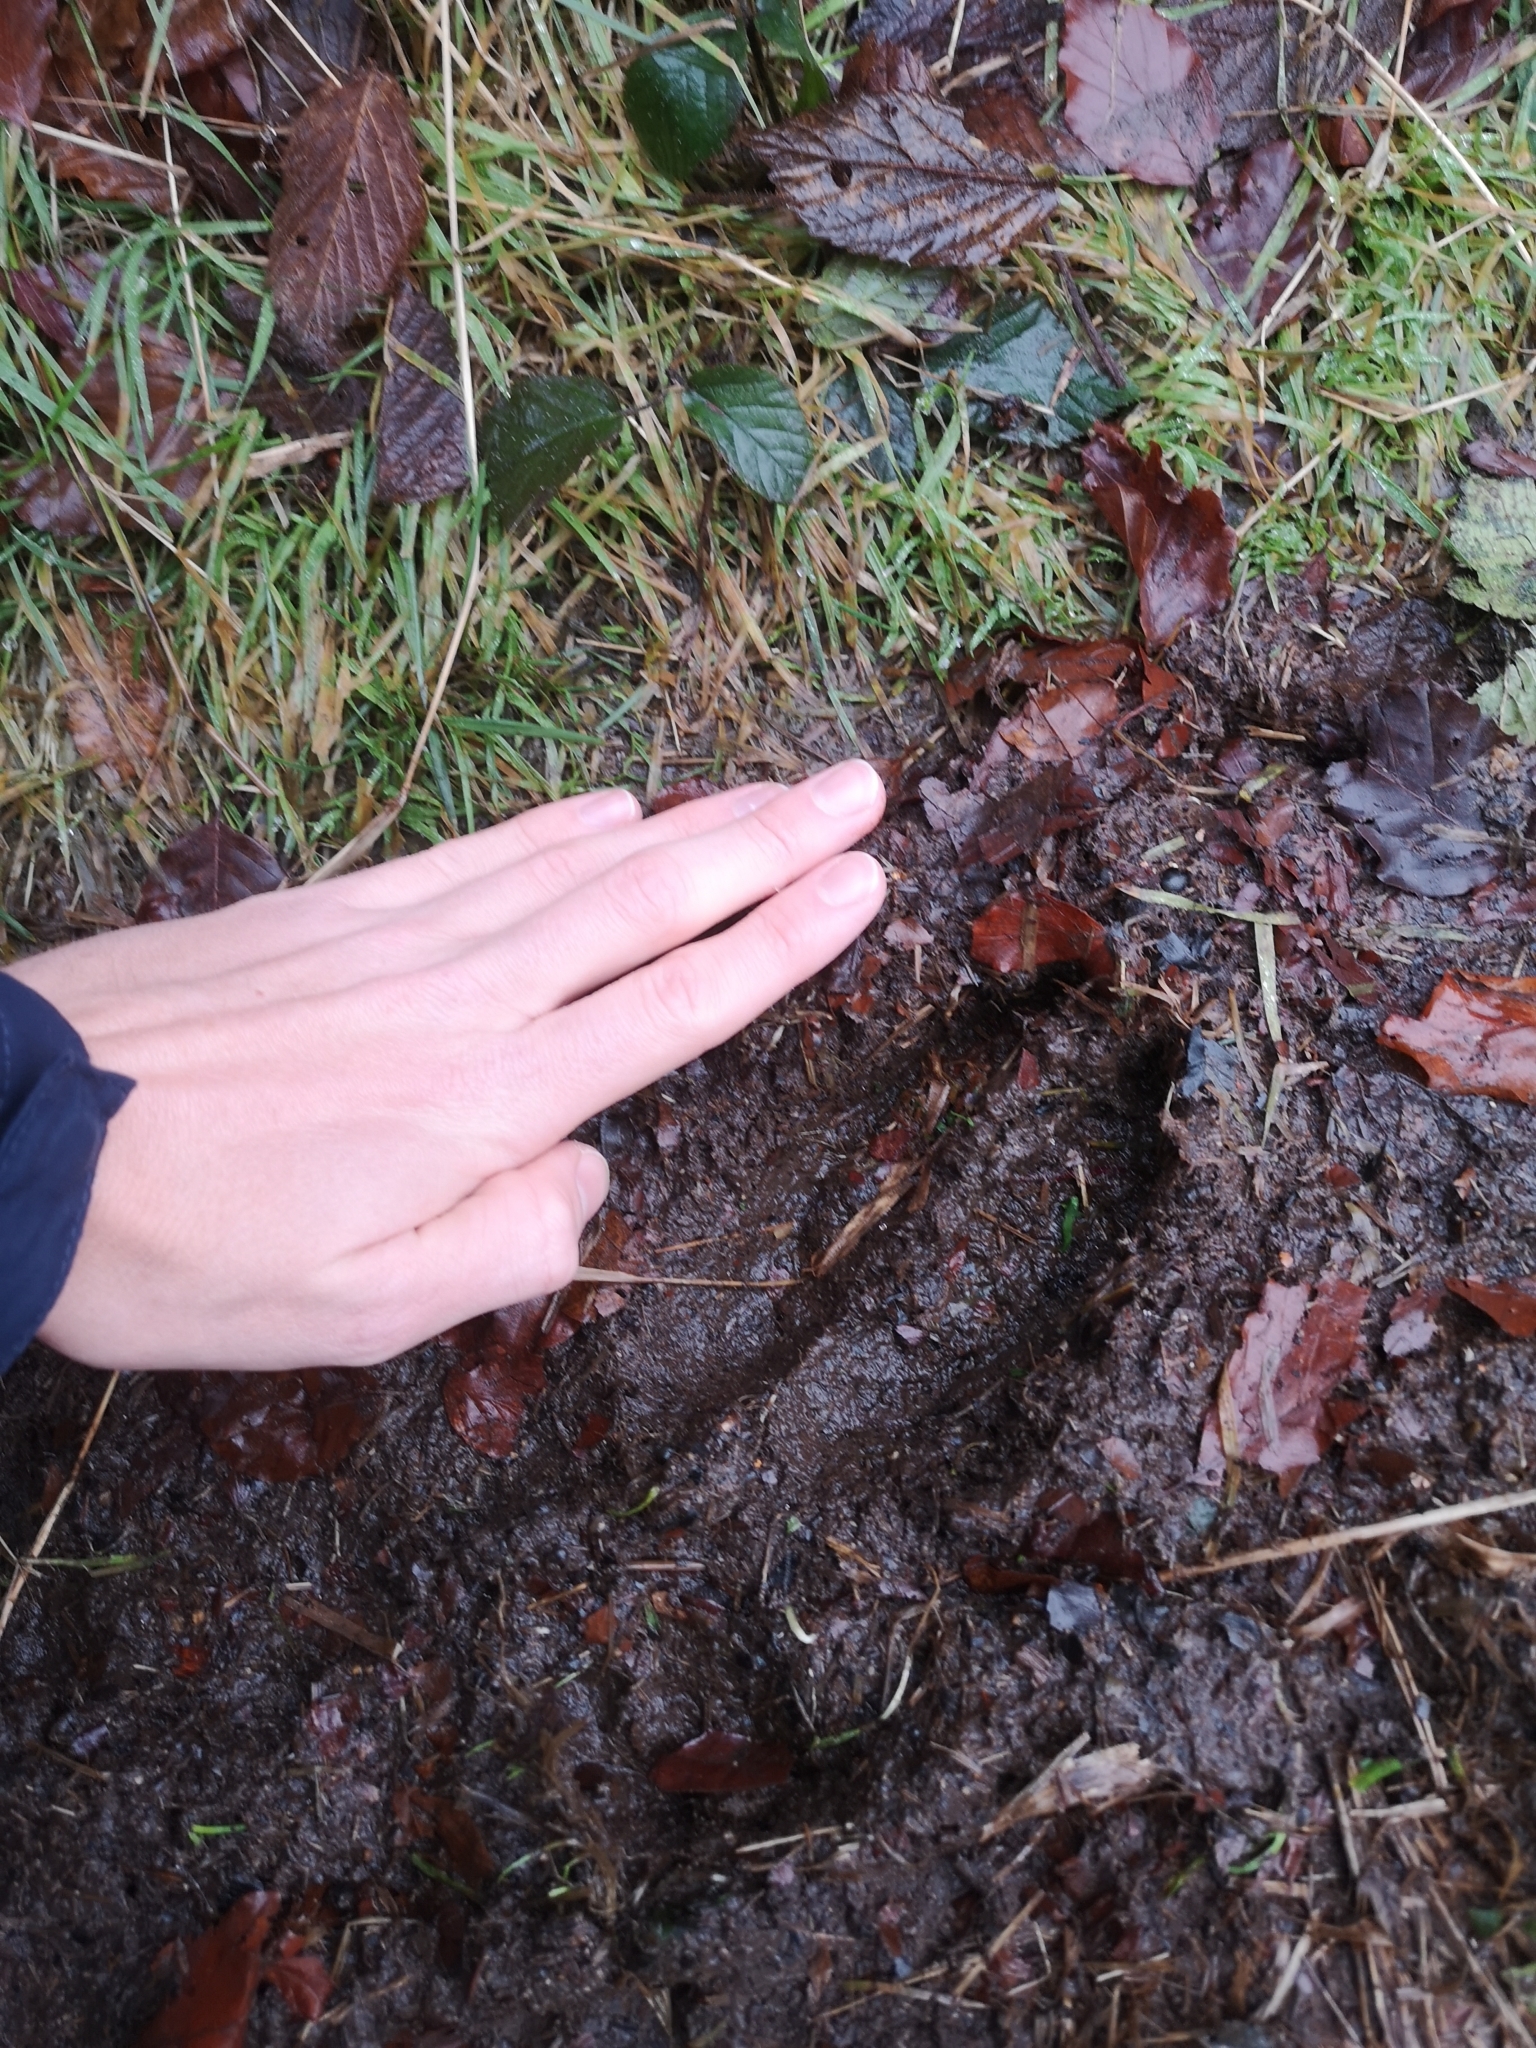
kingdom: Animalia
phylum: Chordata
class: Mammalia
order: Artiodactyla
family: Cervidae
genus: Cervus
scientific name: Cervus elaphus
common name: Red deer
